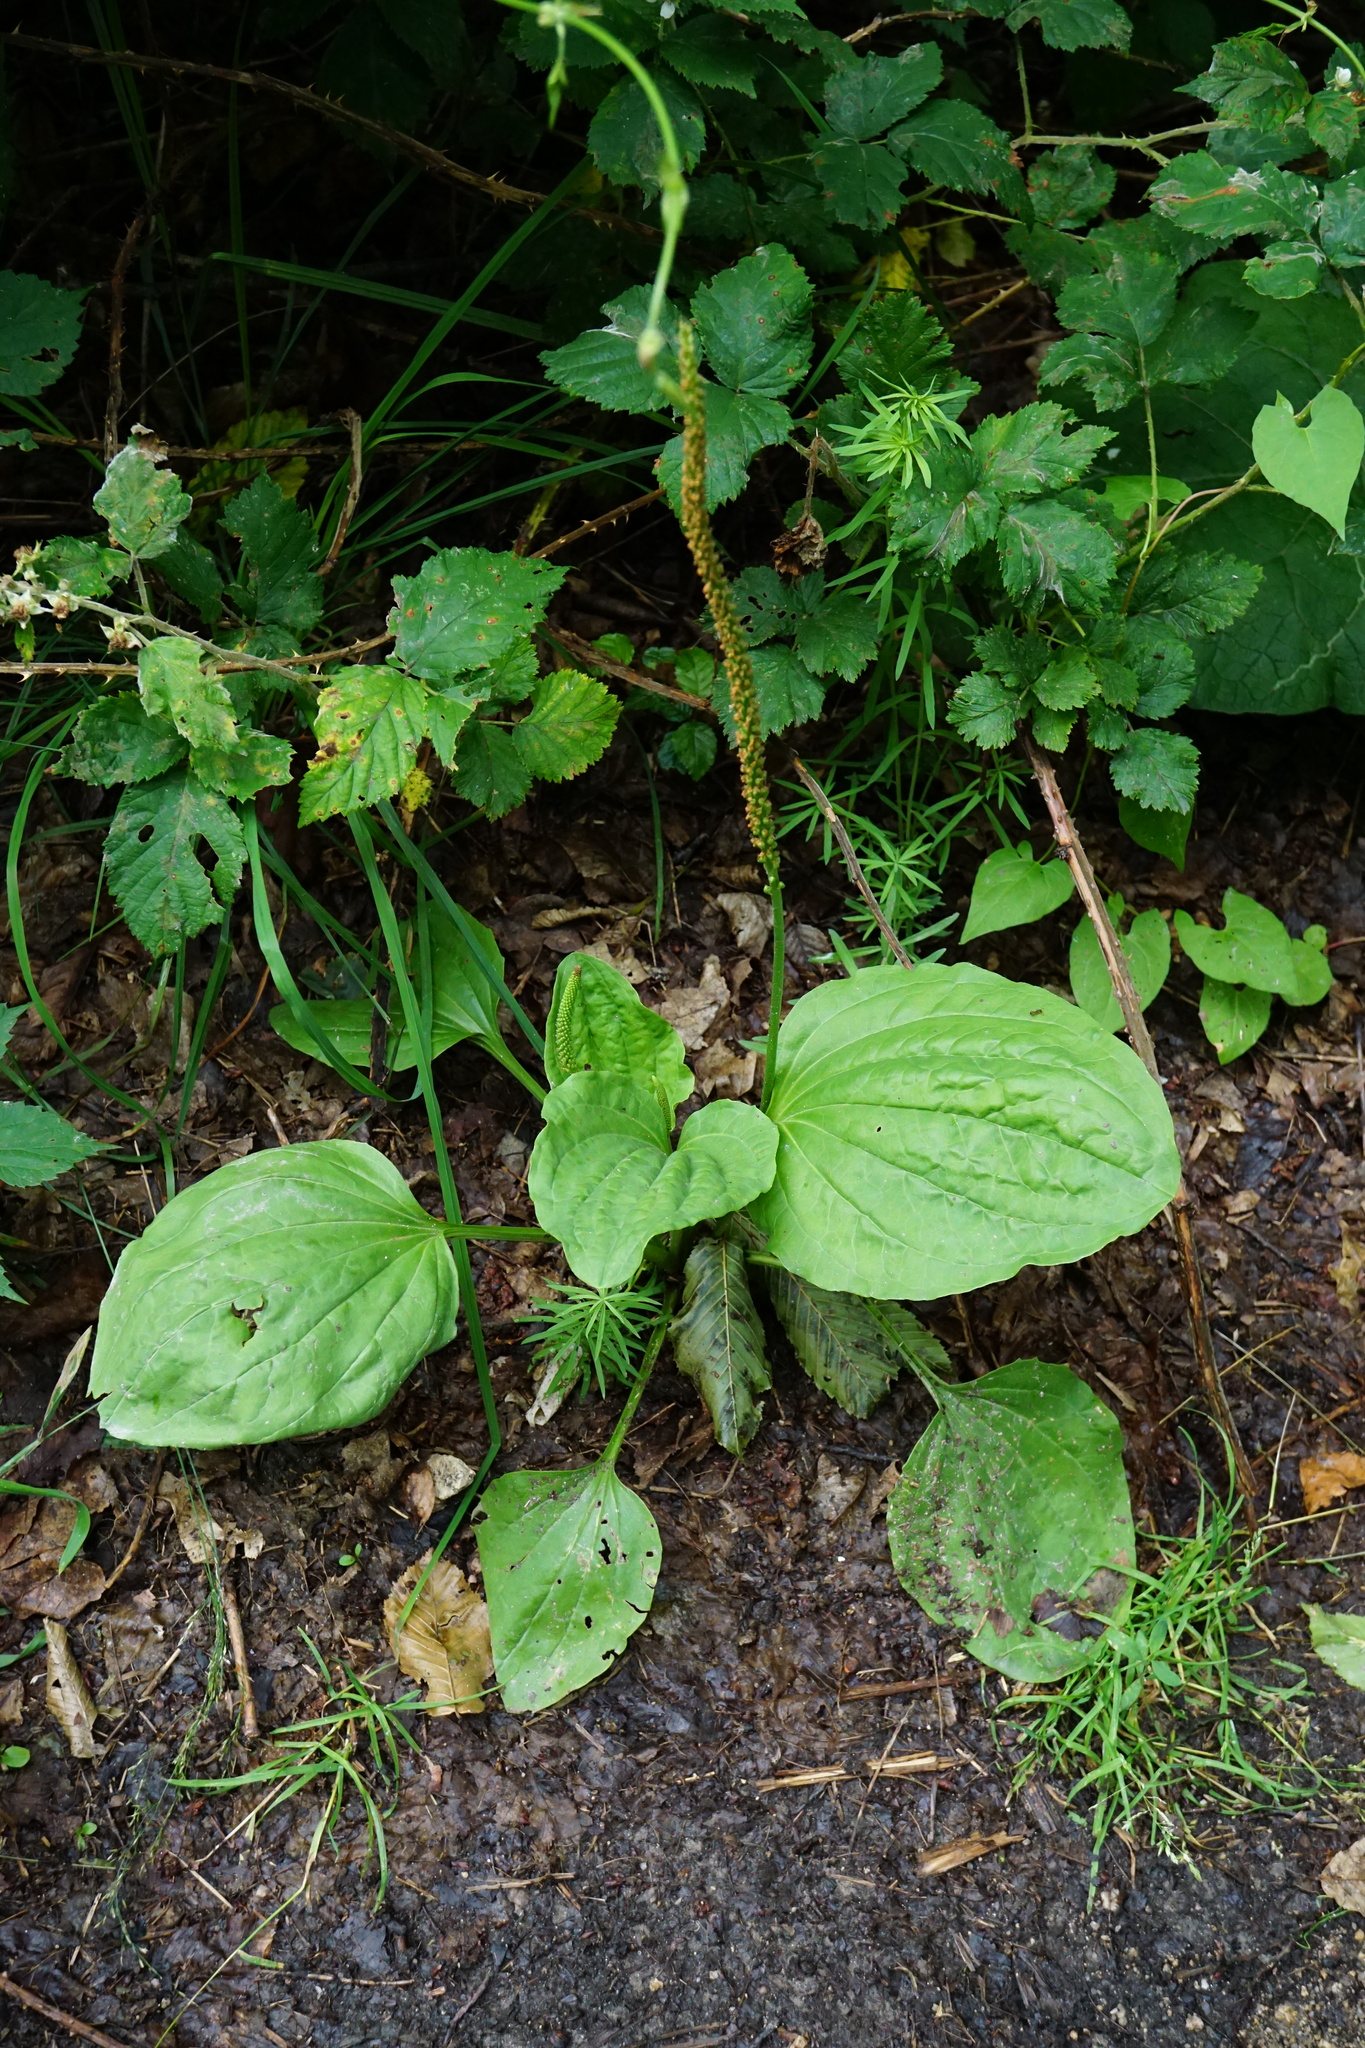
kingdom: Plantae
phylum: Tracheophyta
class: Magnoliopsida
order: Lamiales
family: Plantaginaceae
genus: Plantago
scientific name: Plantago major
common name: Common plantain
